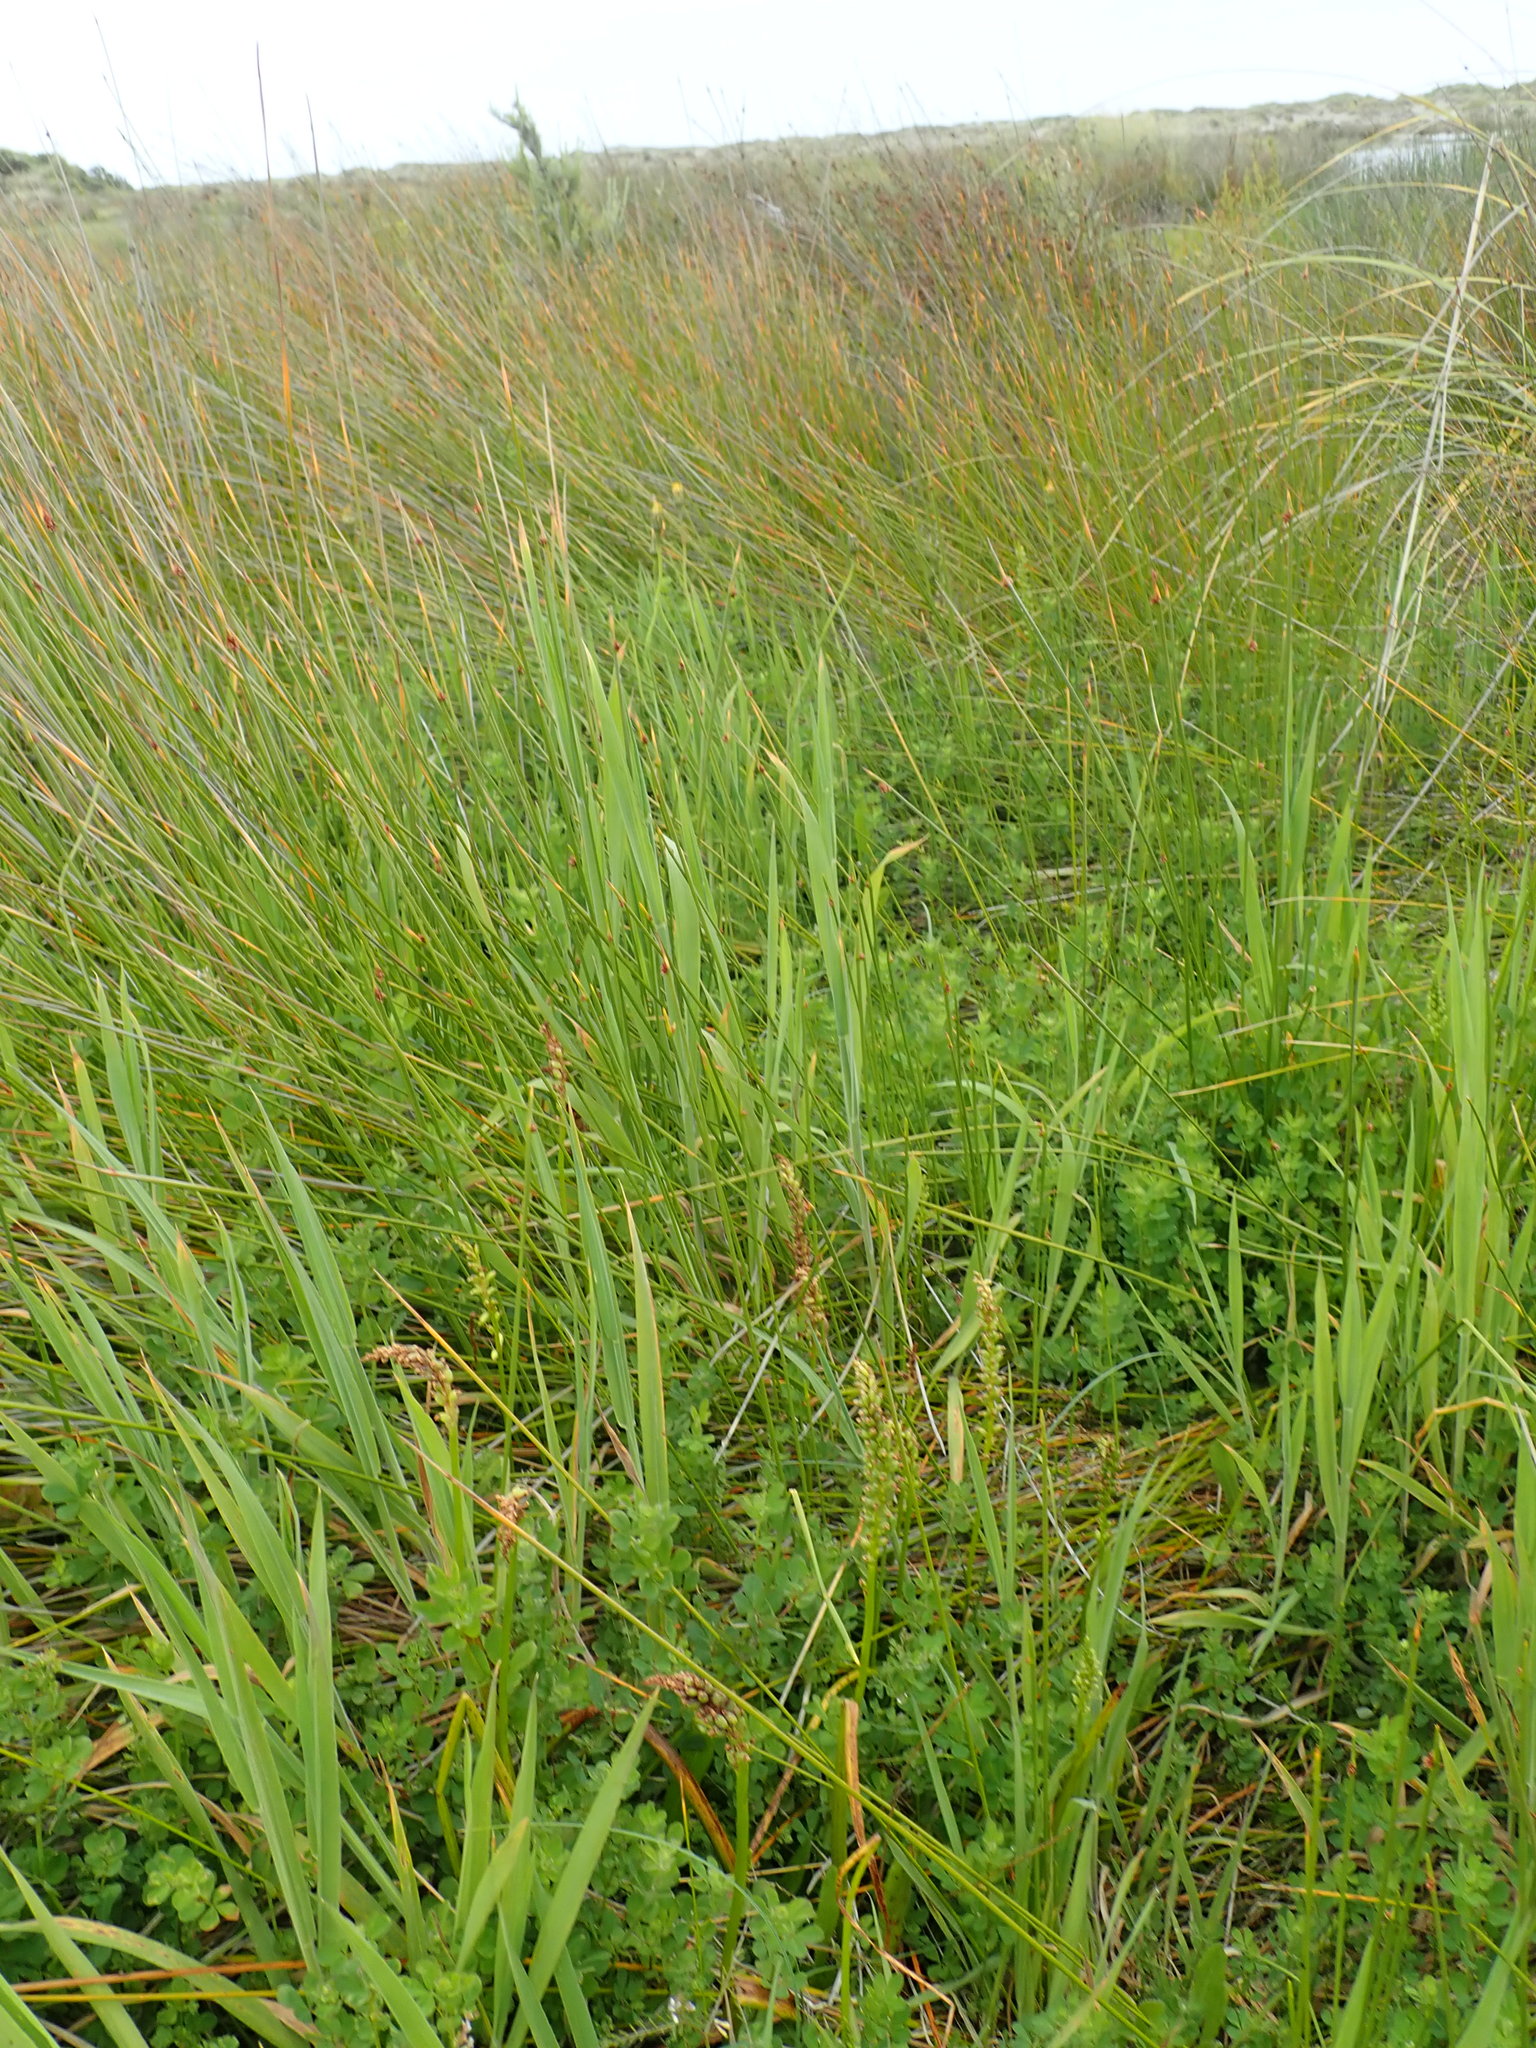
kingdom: Plantae
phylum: Tracheophyta
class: Liliopsida
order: Asparagales
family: Orchidaceae
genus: Microtis
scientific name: Microtis unifolia
